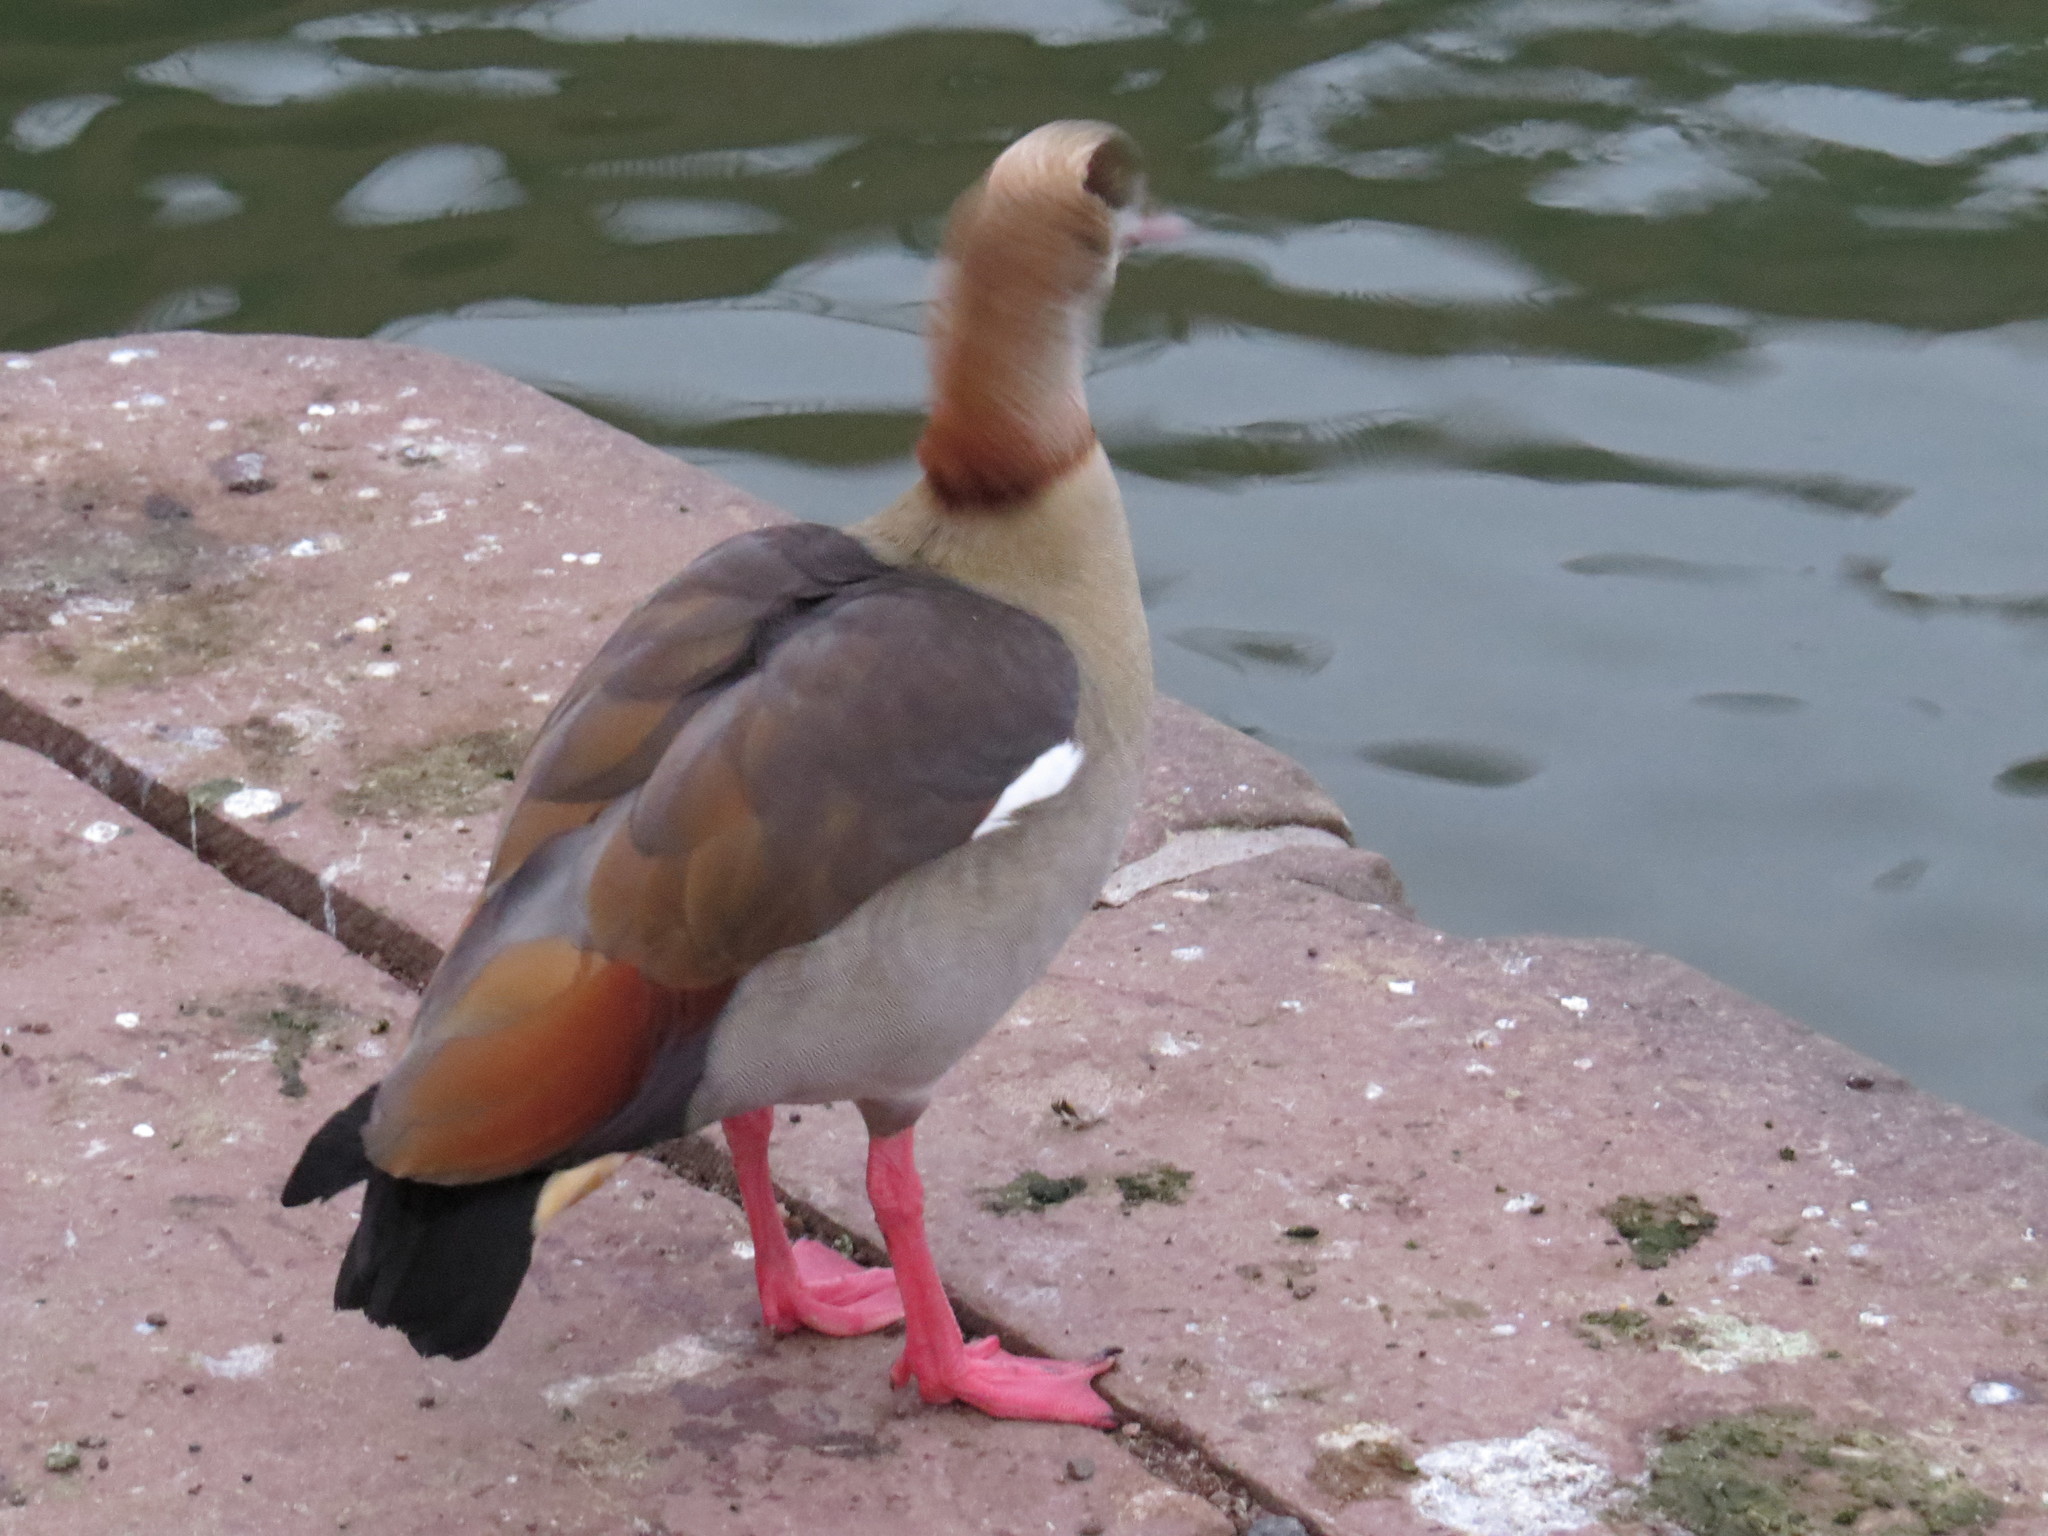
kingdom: Animalia
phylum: Chordata
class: Aves
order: Anseriformes
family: Anatidae
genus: Alopochen
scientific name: Alopochen aegyptiaca
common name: Egyptian goose
